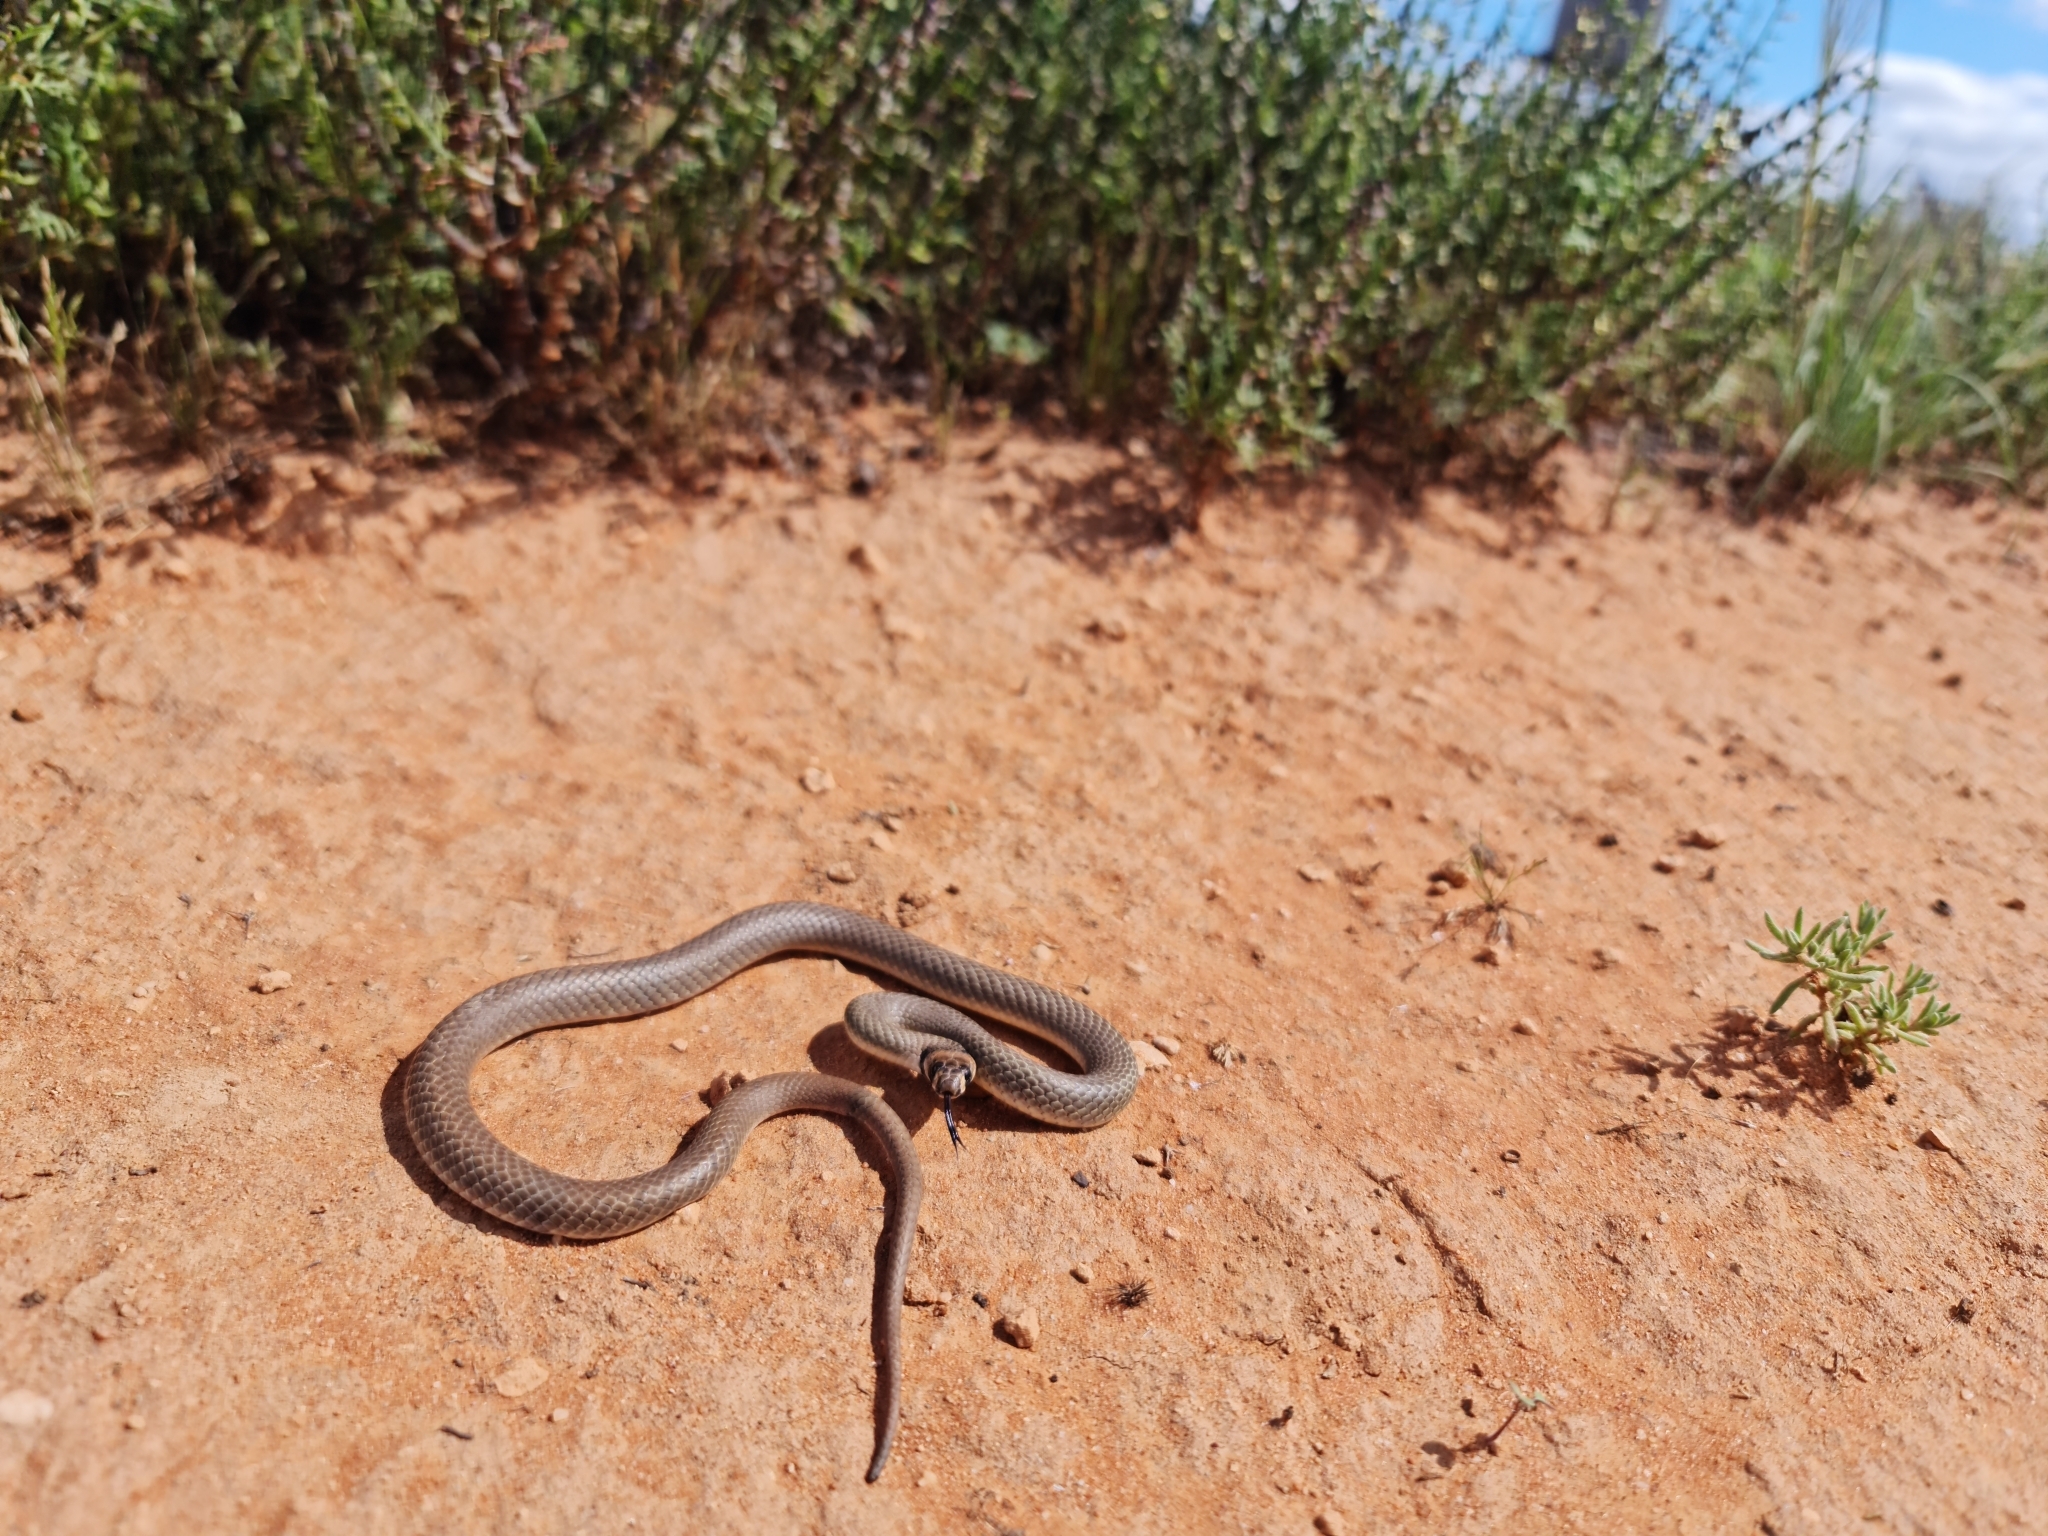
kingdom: Animalia
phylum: Chordata
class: Squamata
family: Elapidae
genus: Pseudonaja
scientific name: Pseudonaja modesta
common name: Ringed brown snake
